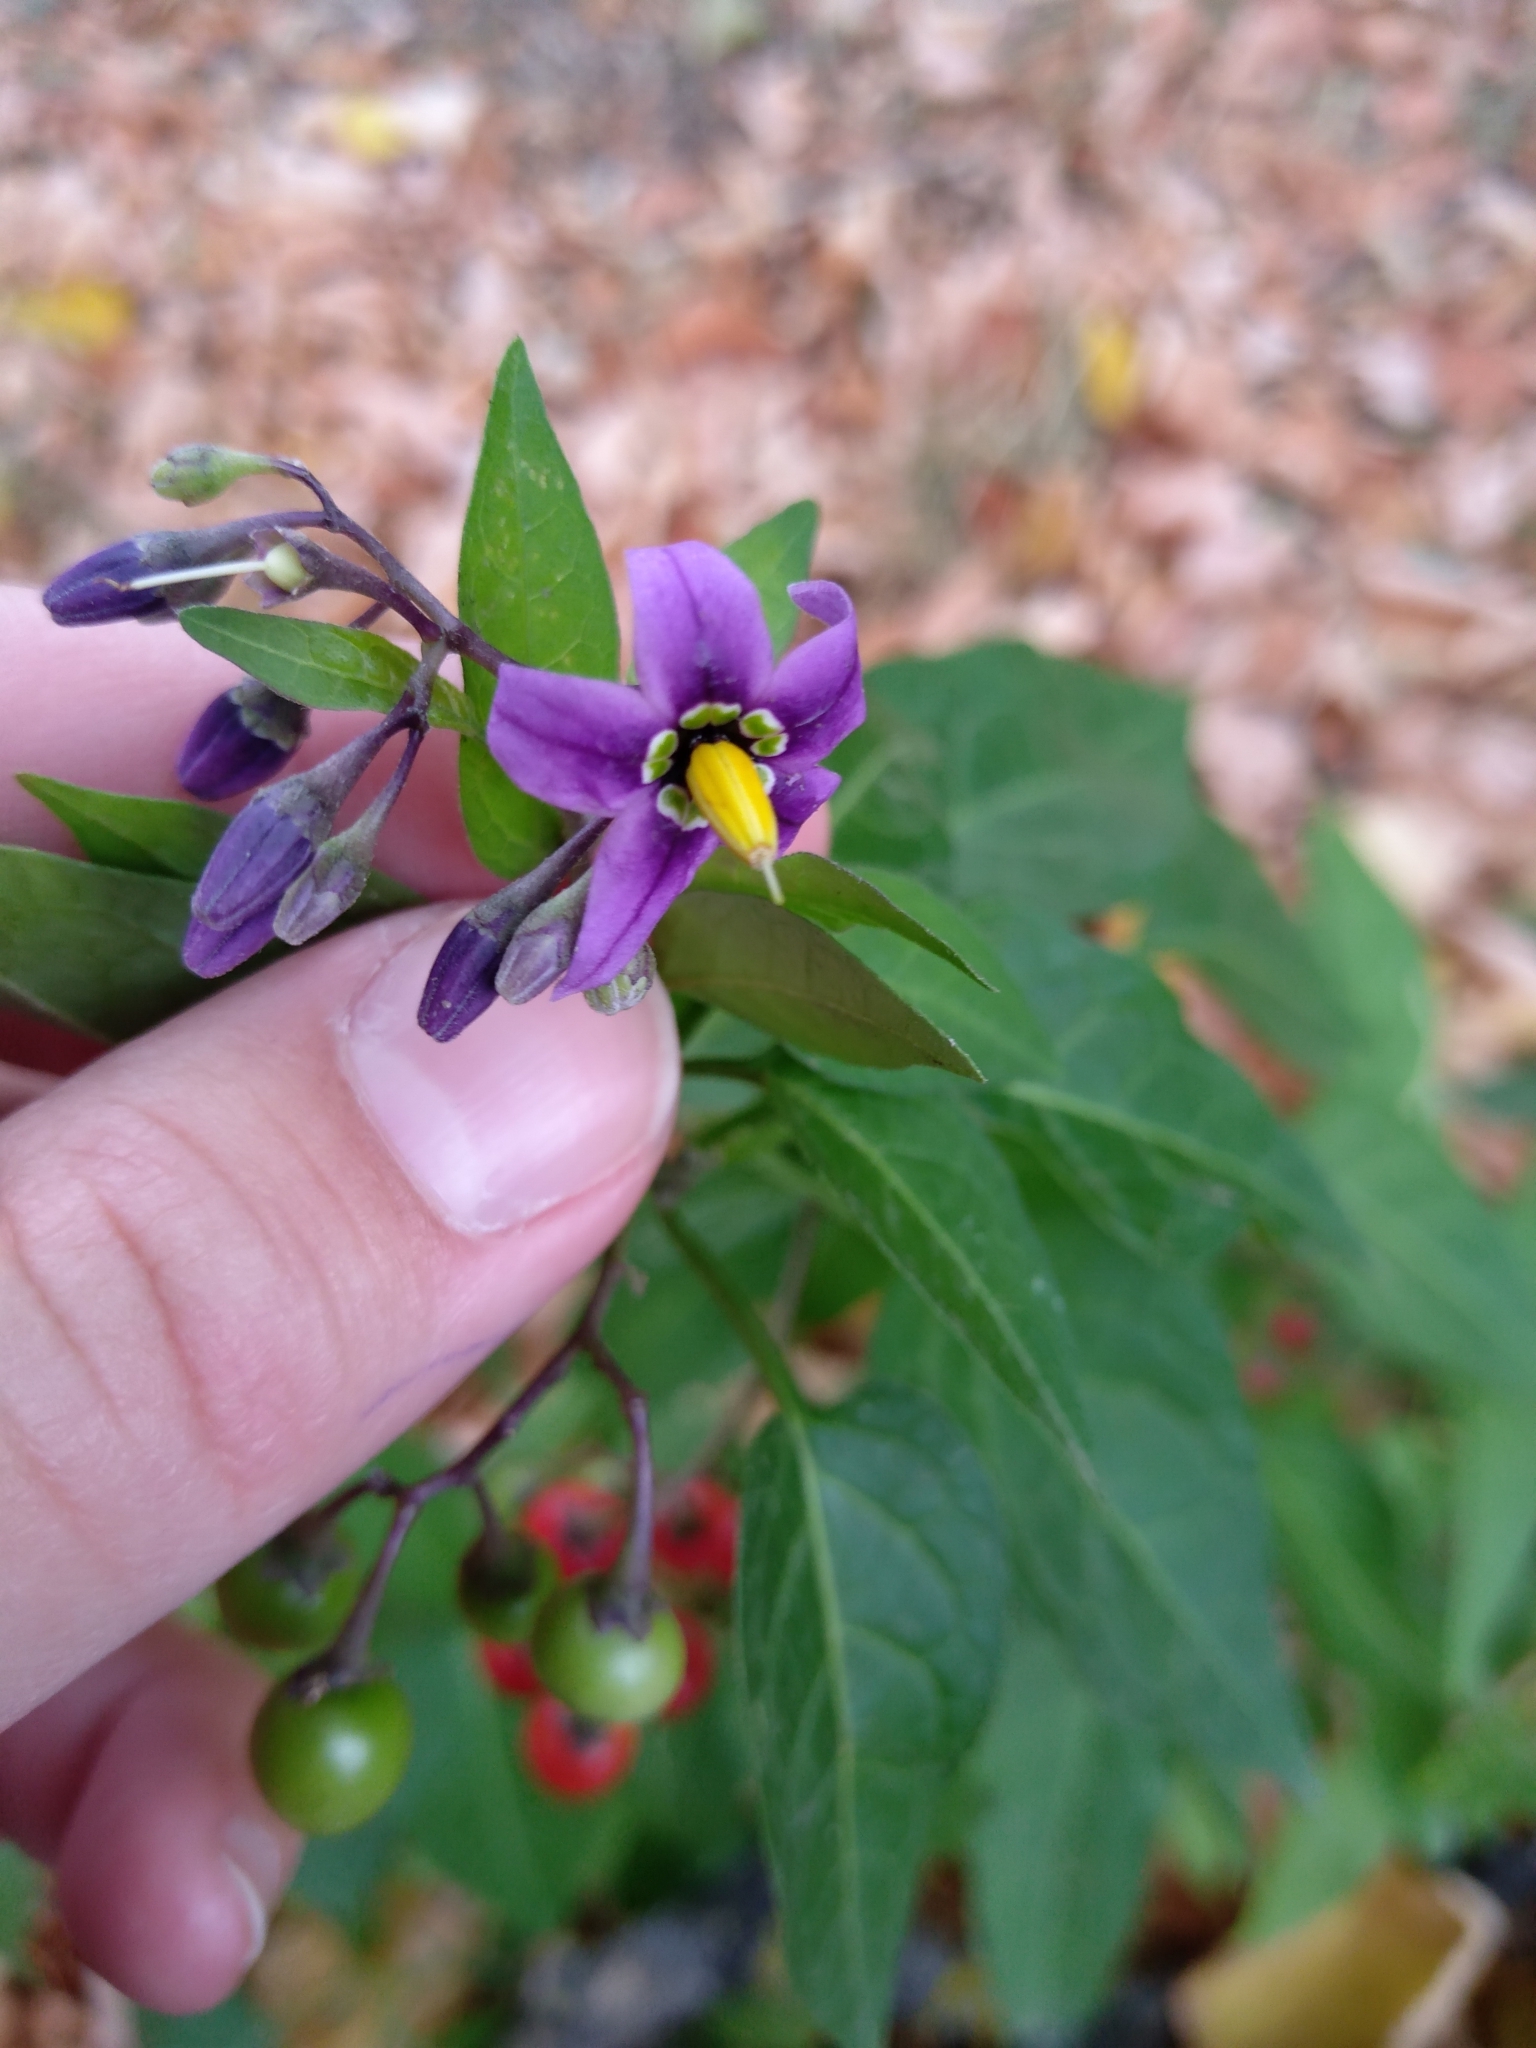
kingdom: Plantae
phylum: Tracheophyta
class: Magnoliopsida
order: Solanales
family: Solanaceae
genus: Solanum
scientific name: Solanum dulcamara
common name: Climbing nightshade
